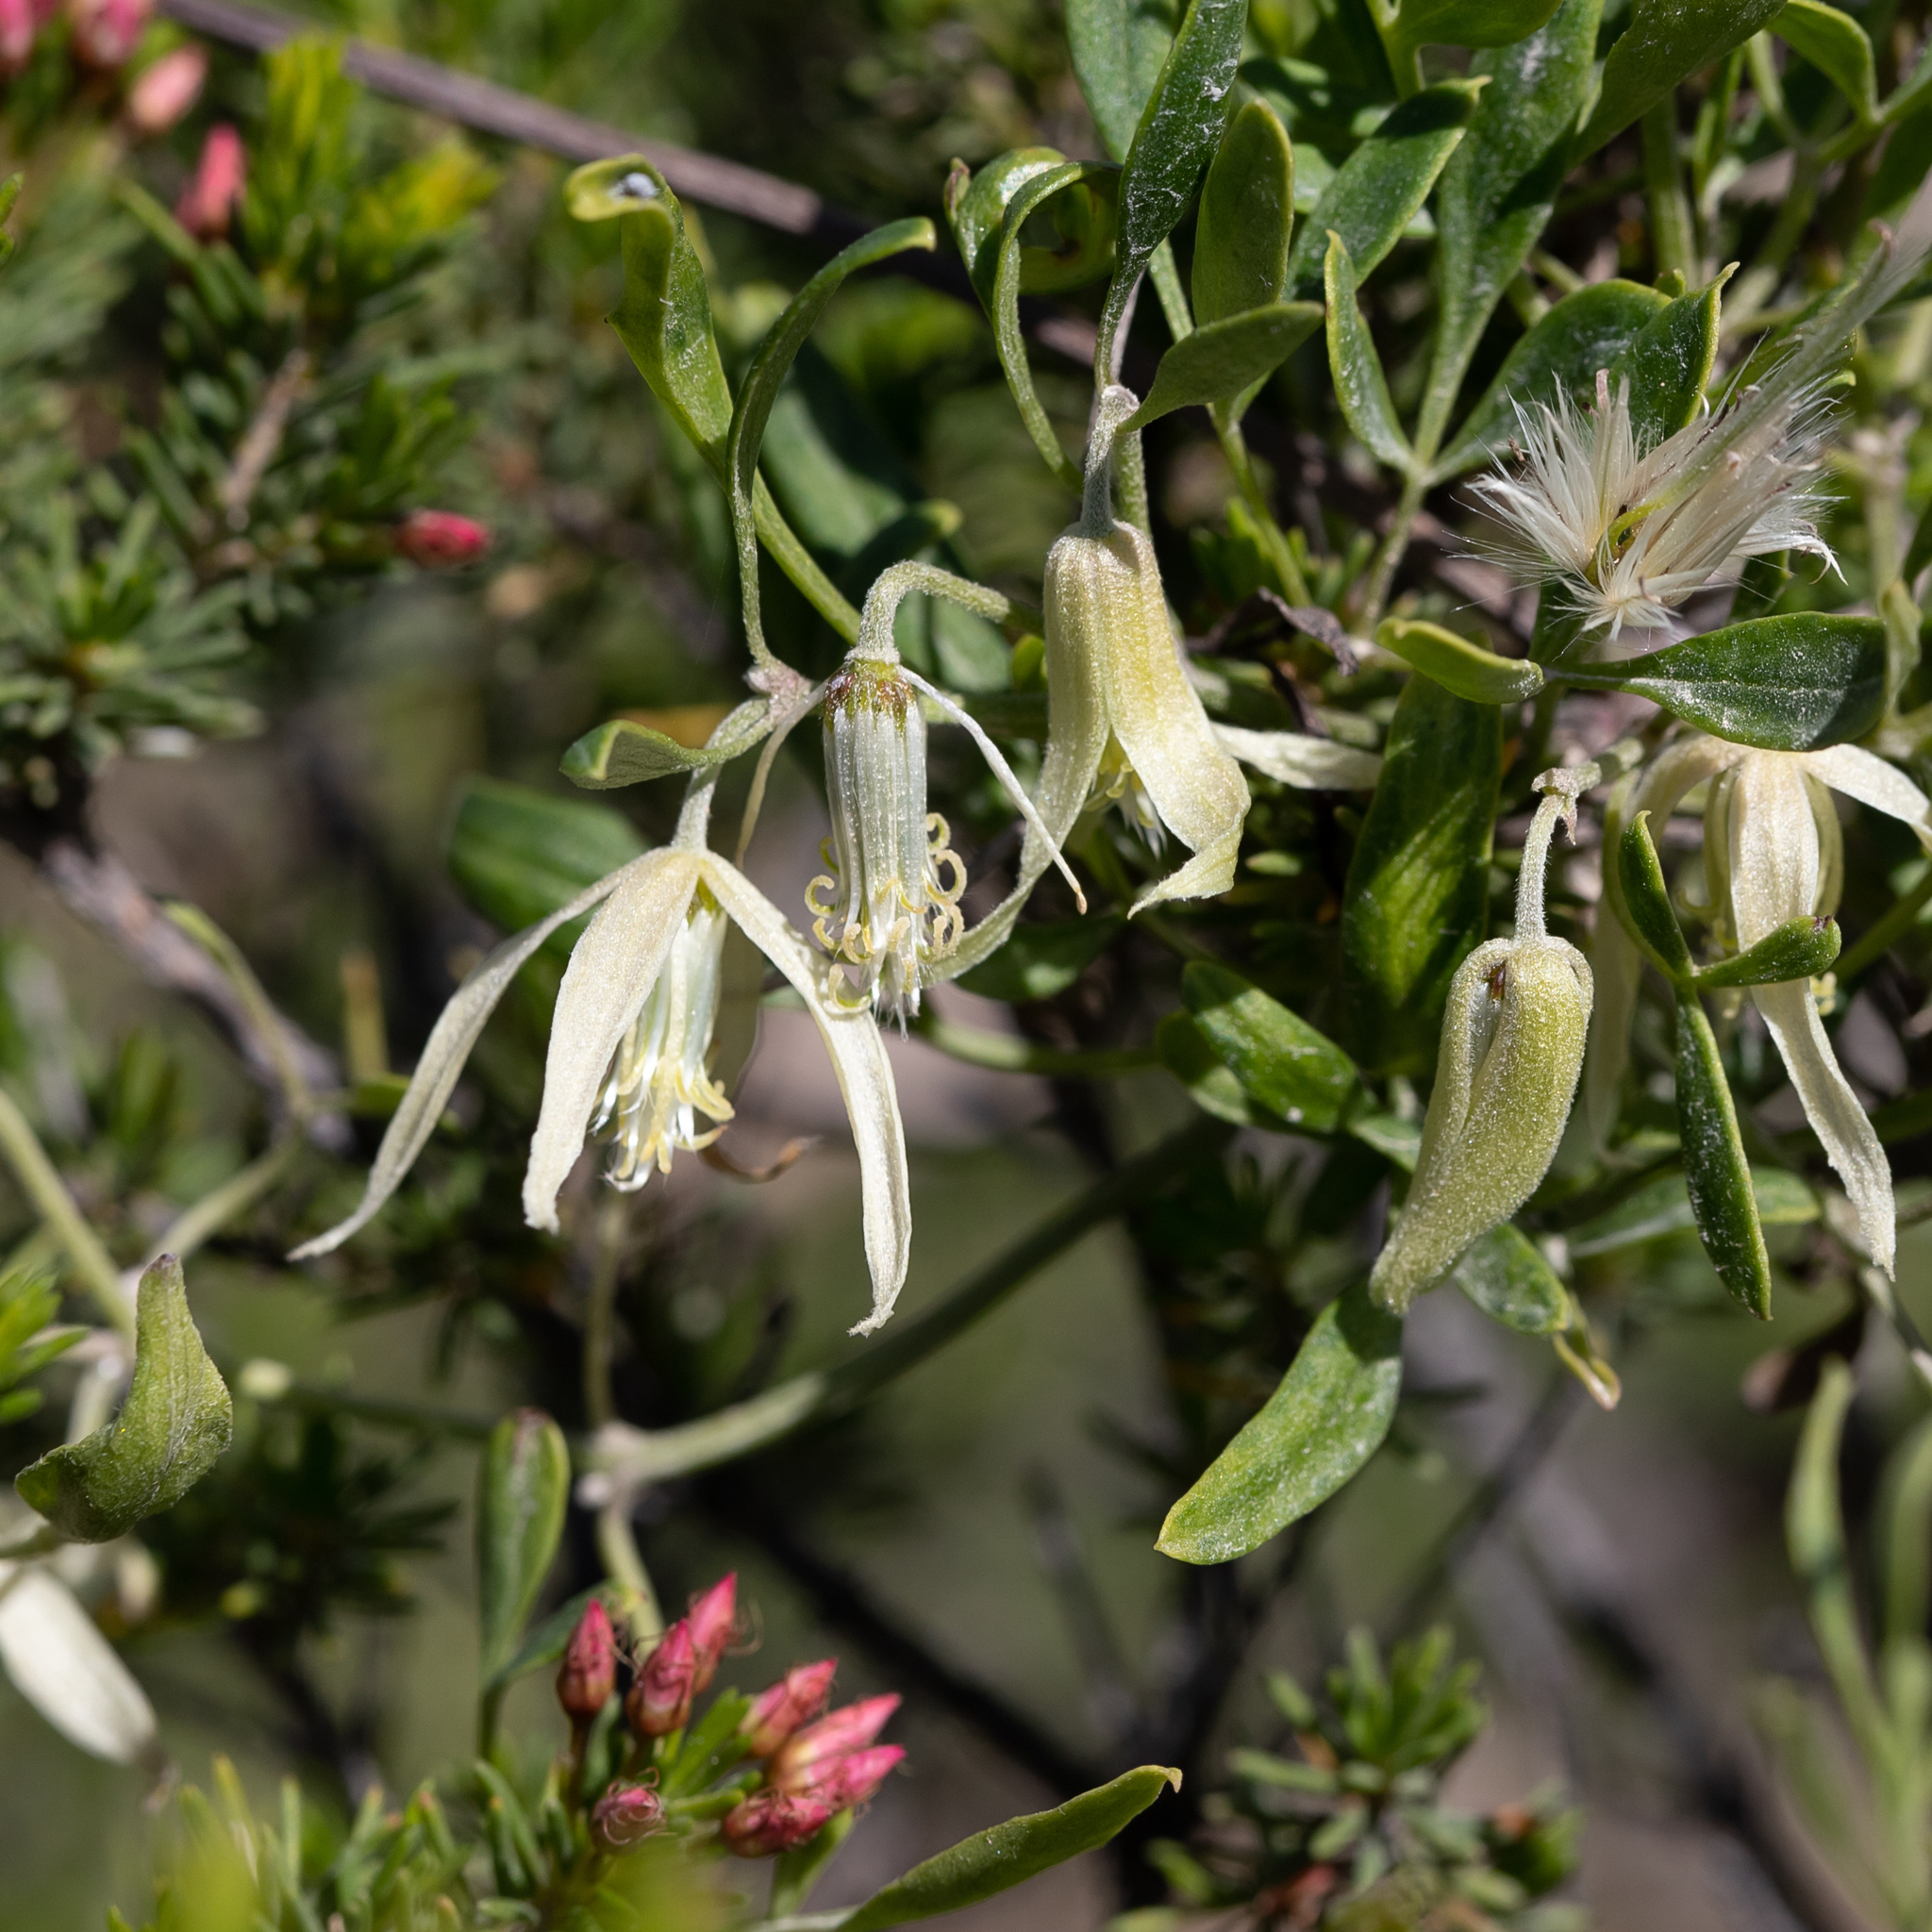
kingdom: Plantae
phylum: Tracheophyta
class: Magnoliopsida
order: Ranunculales
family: Ranunculaceae
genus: Clematis
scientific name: Clematis microphylla
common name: Headachevine
